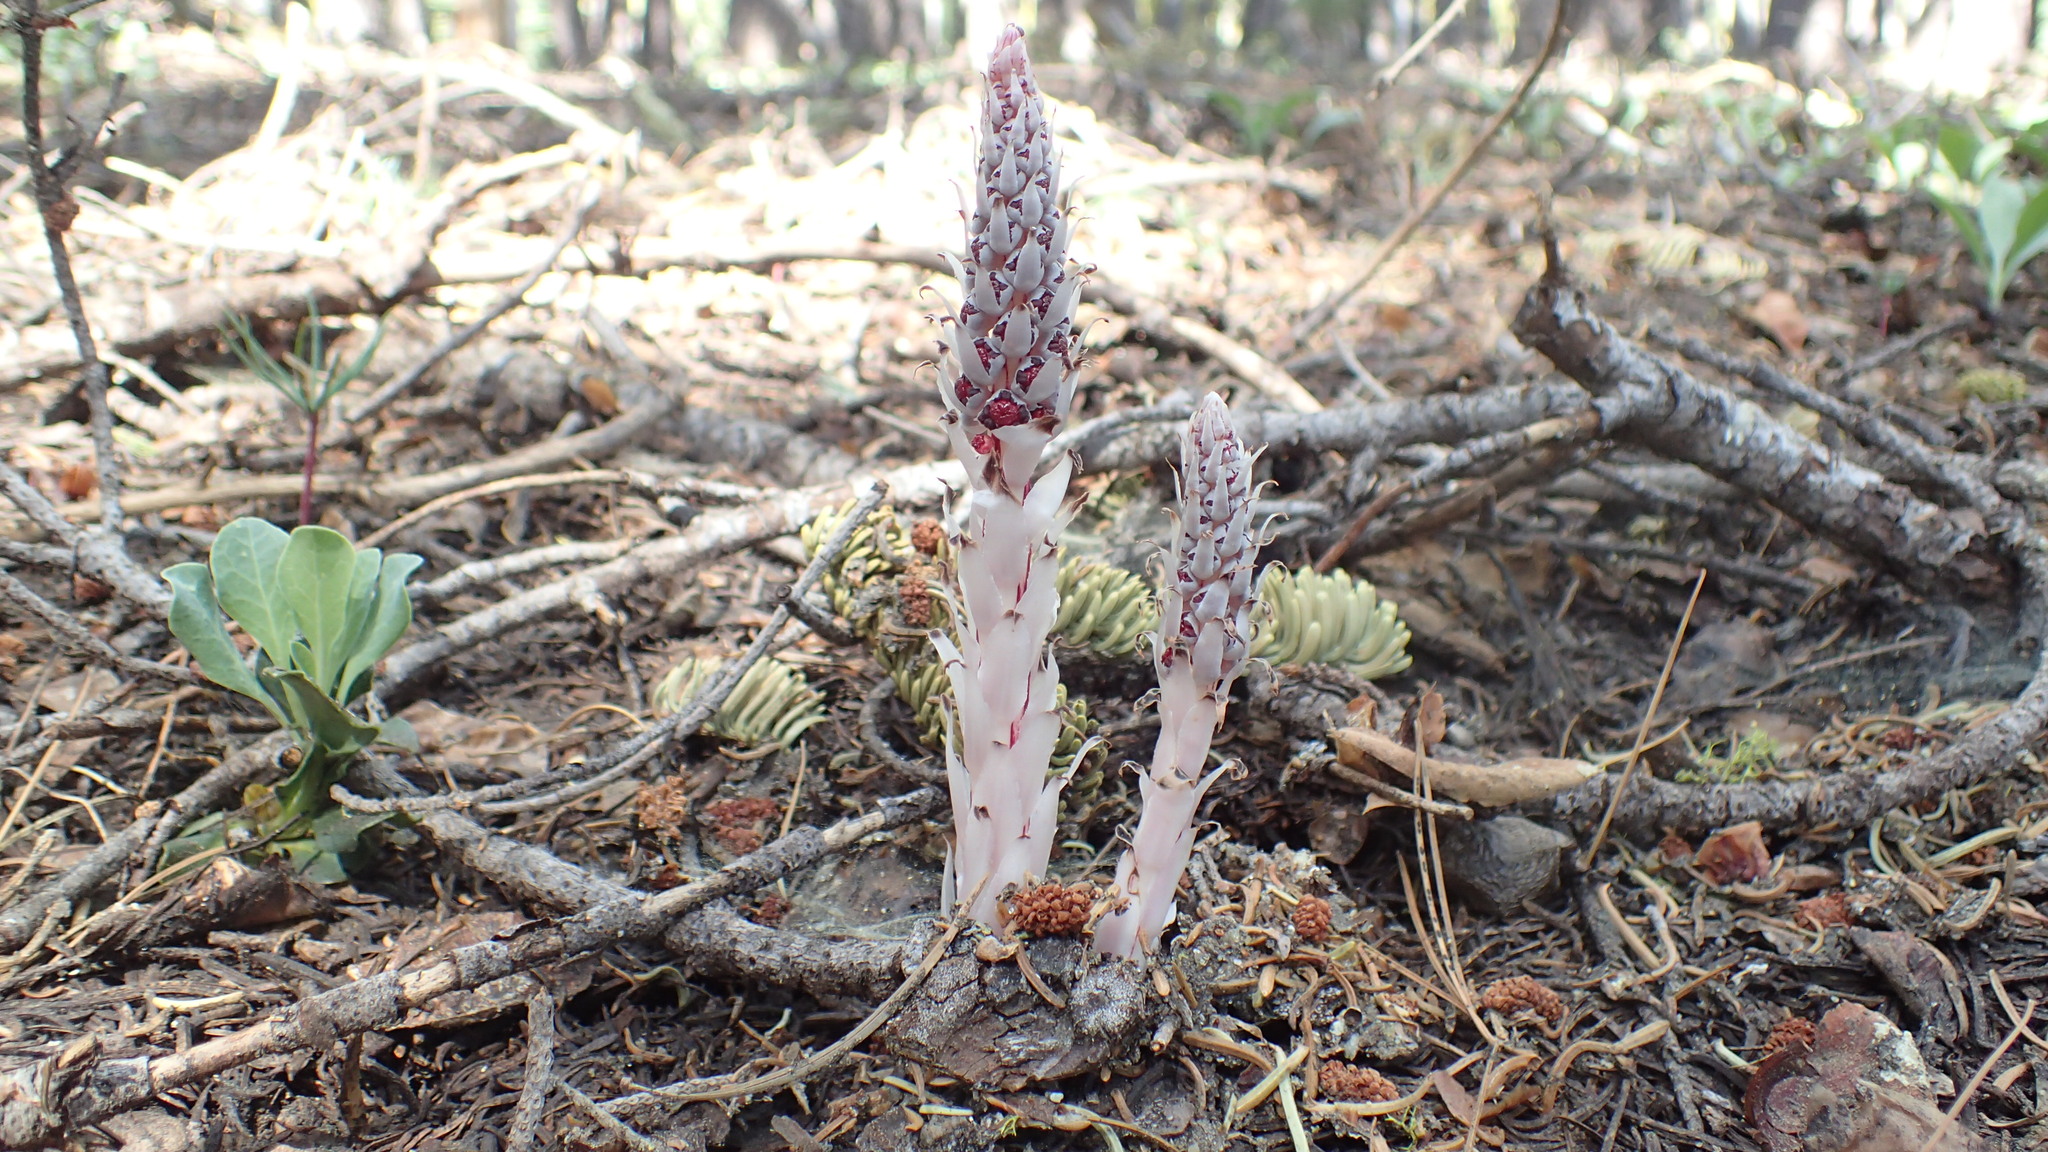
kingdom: Plantae
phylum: Tracheophyta
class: Magnoliopsida
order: Ericales
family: Ericaceae
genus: Allotropa
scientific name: Allotropa virgata
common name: Candy-striped allotropa
